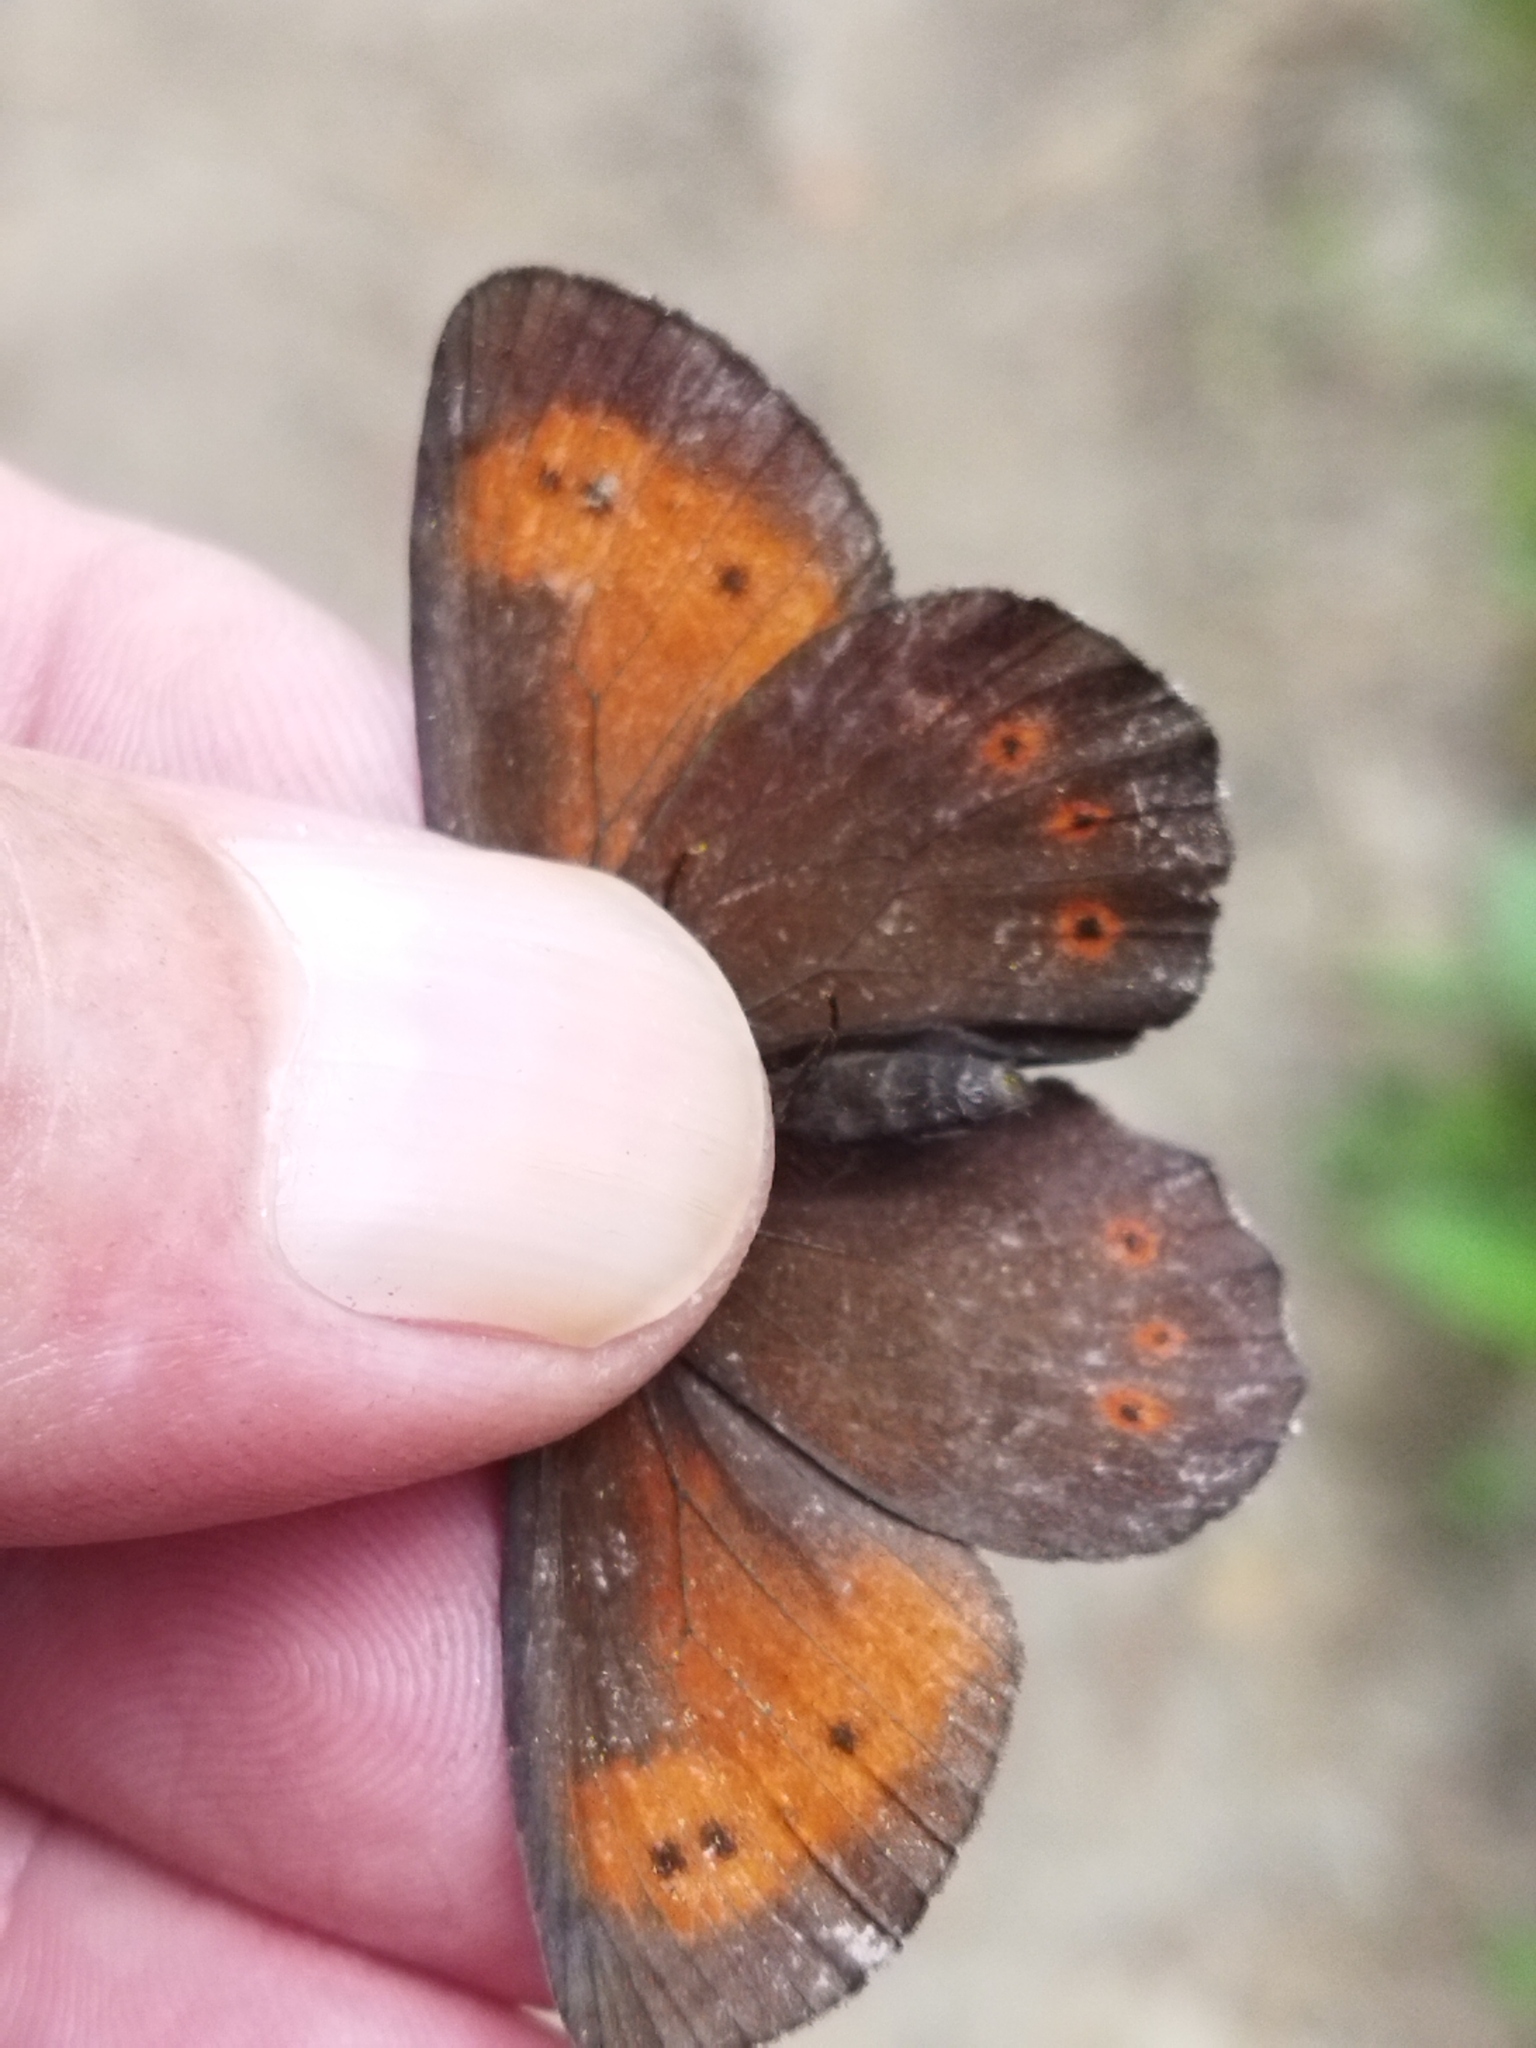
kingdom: Animalia
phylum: Arthropoda
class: Insecta
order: Lepidoptera
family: Nymphalidae
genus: Erebia
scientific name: Erebia euryale
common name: Large ringlet
